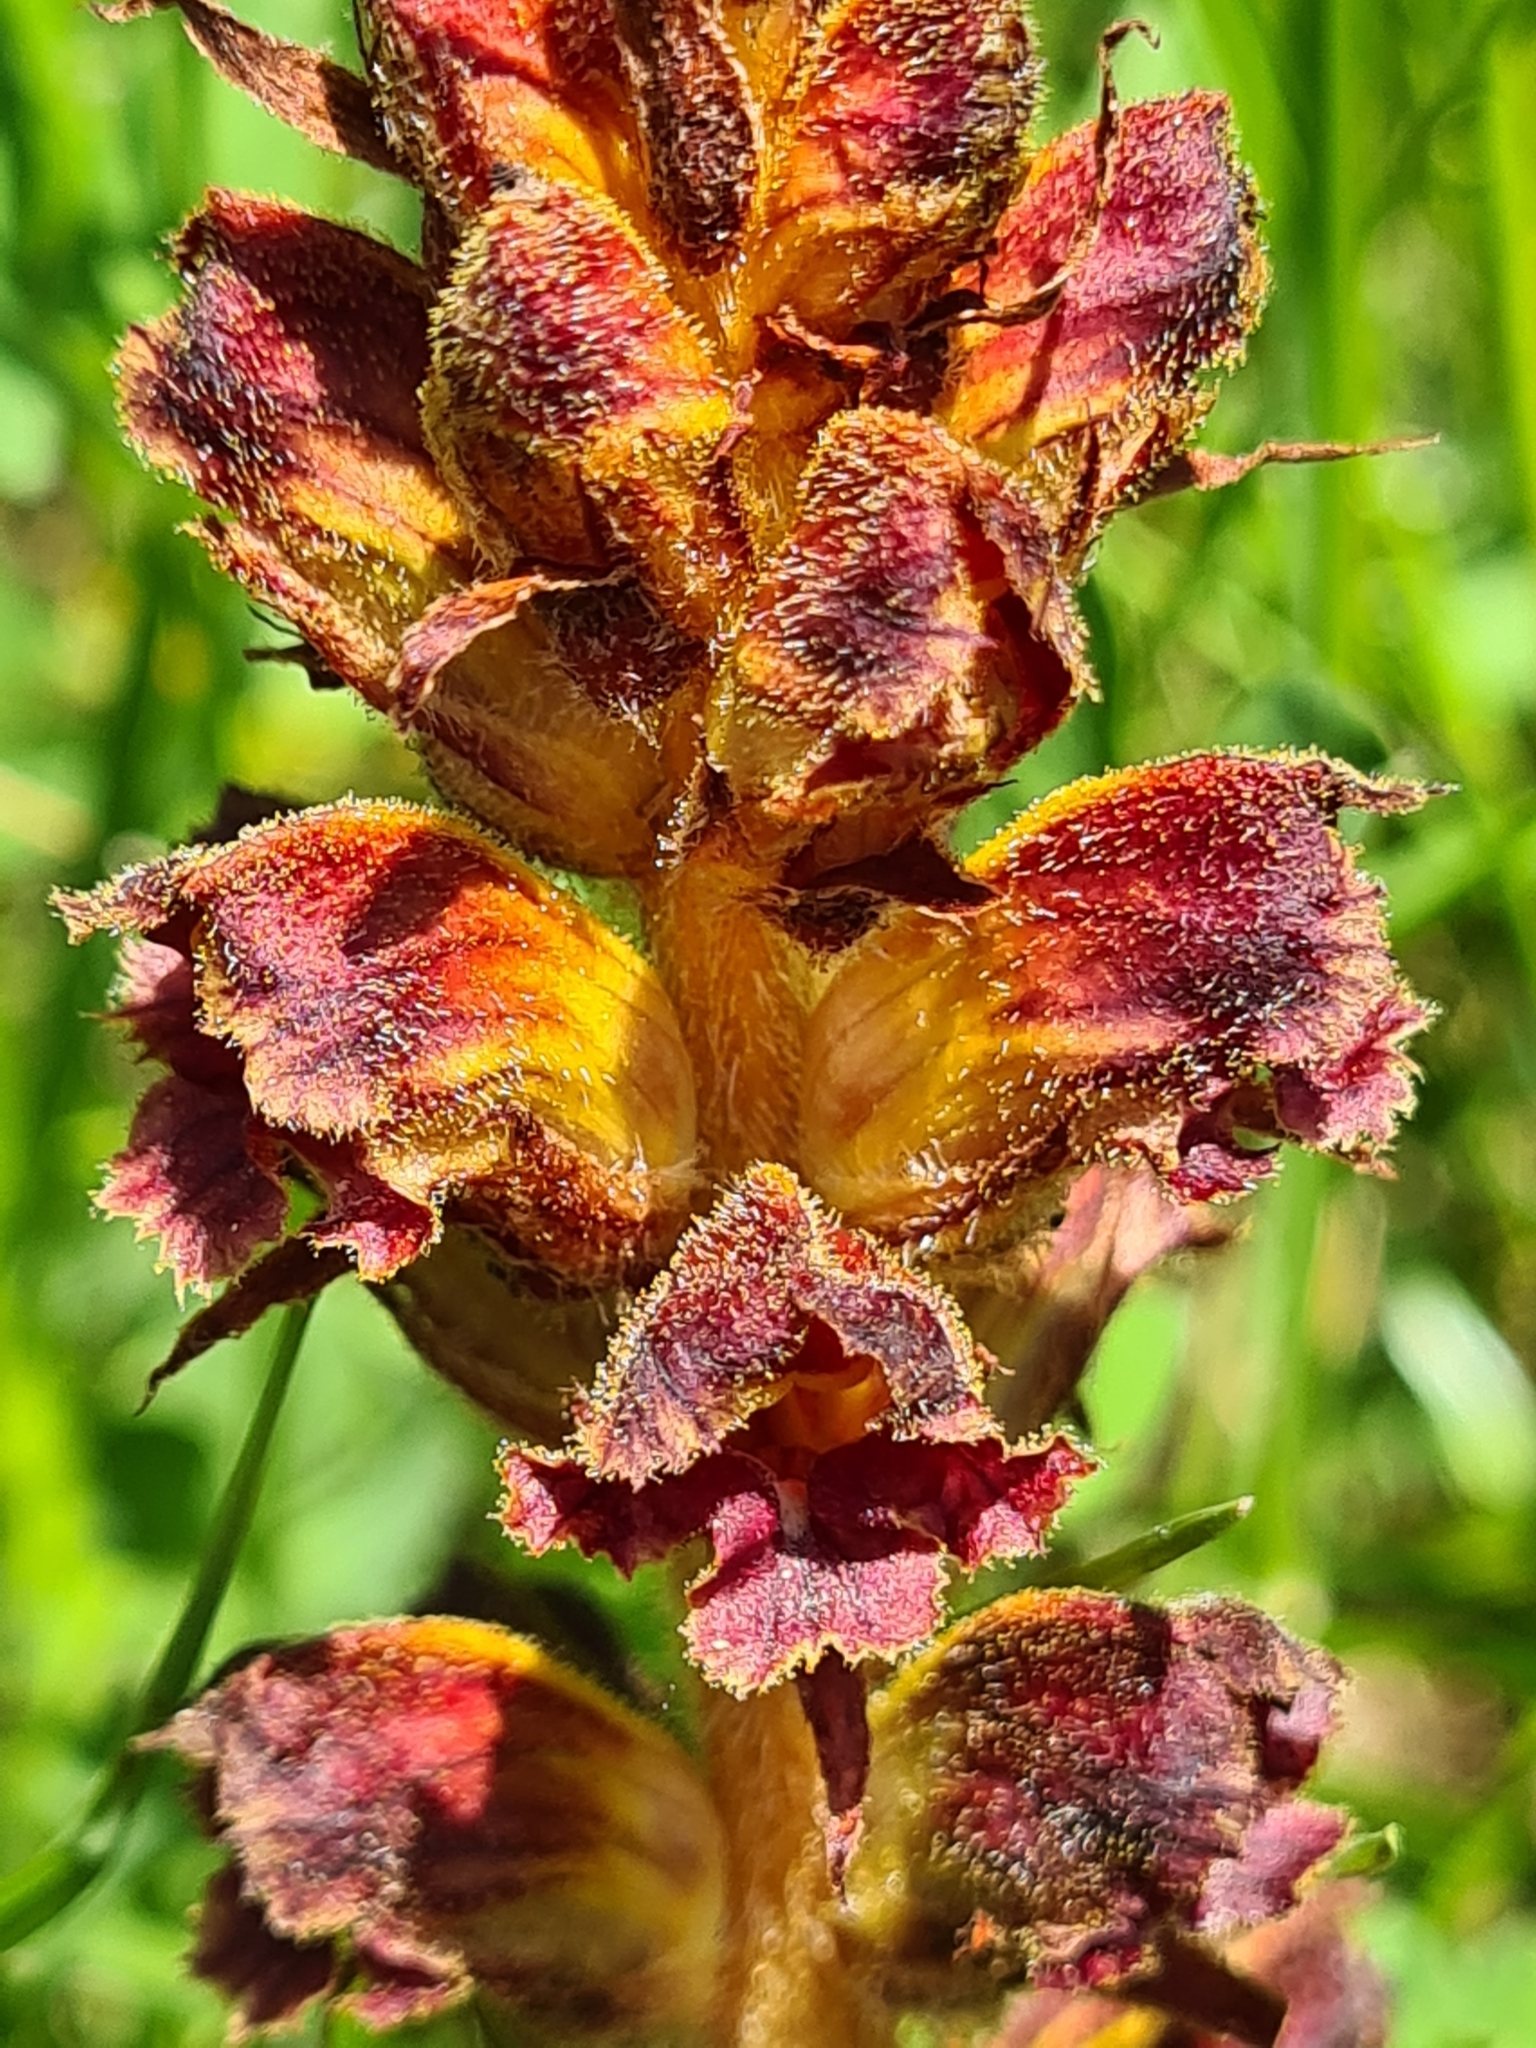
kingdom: Plantae
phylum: Tracheophyta
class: Magnoliopsida
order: Lamiales
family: Orobanchaceae
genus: Orobanche
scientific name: Orobanche gracilis
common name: Slender broomrape
